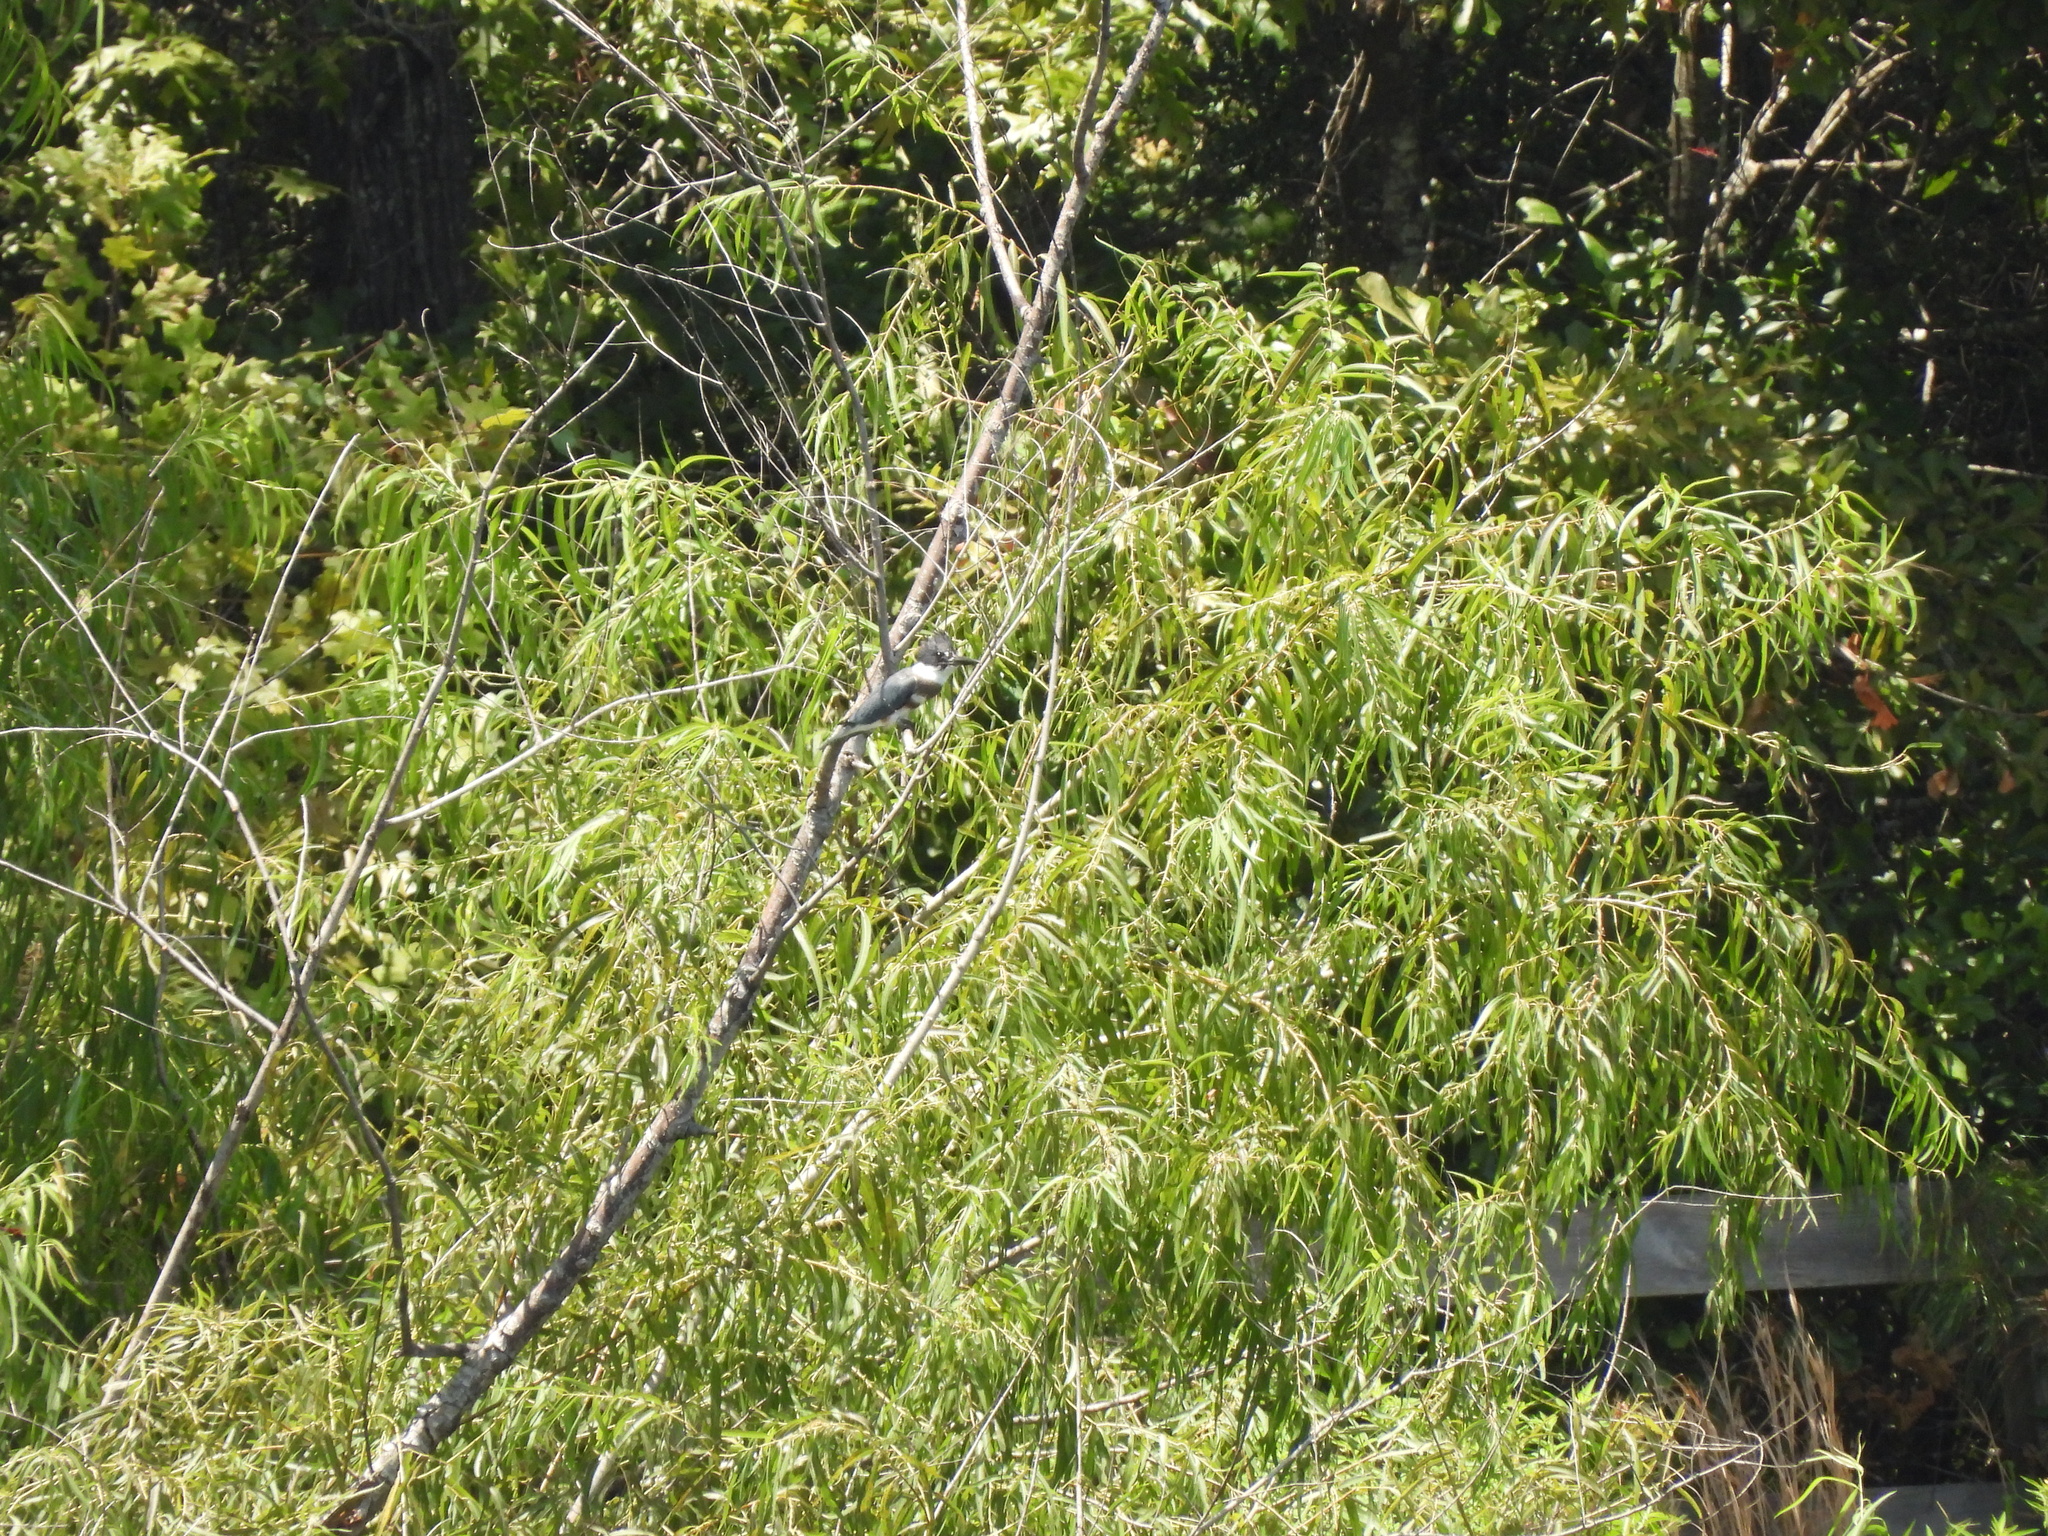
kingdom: Animalia
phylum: Chordata
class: Aves
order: Coraciiformes
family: Alcedinidae
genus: Megaceryle
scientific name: Megaceryle alcyon
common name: Belted kingfisher
